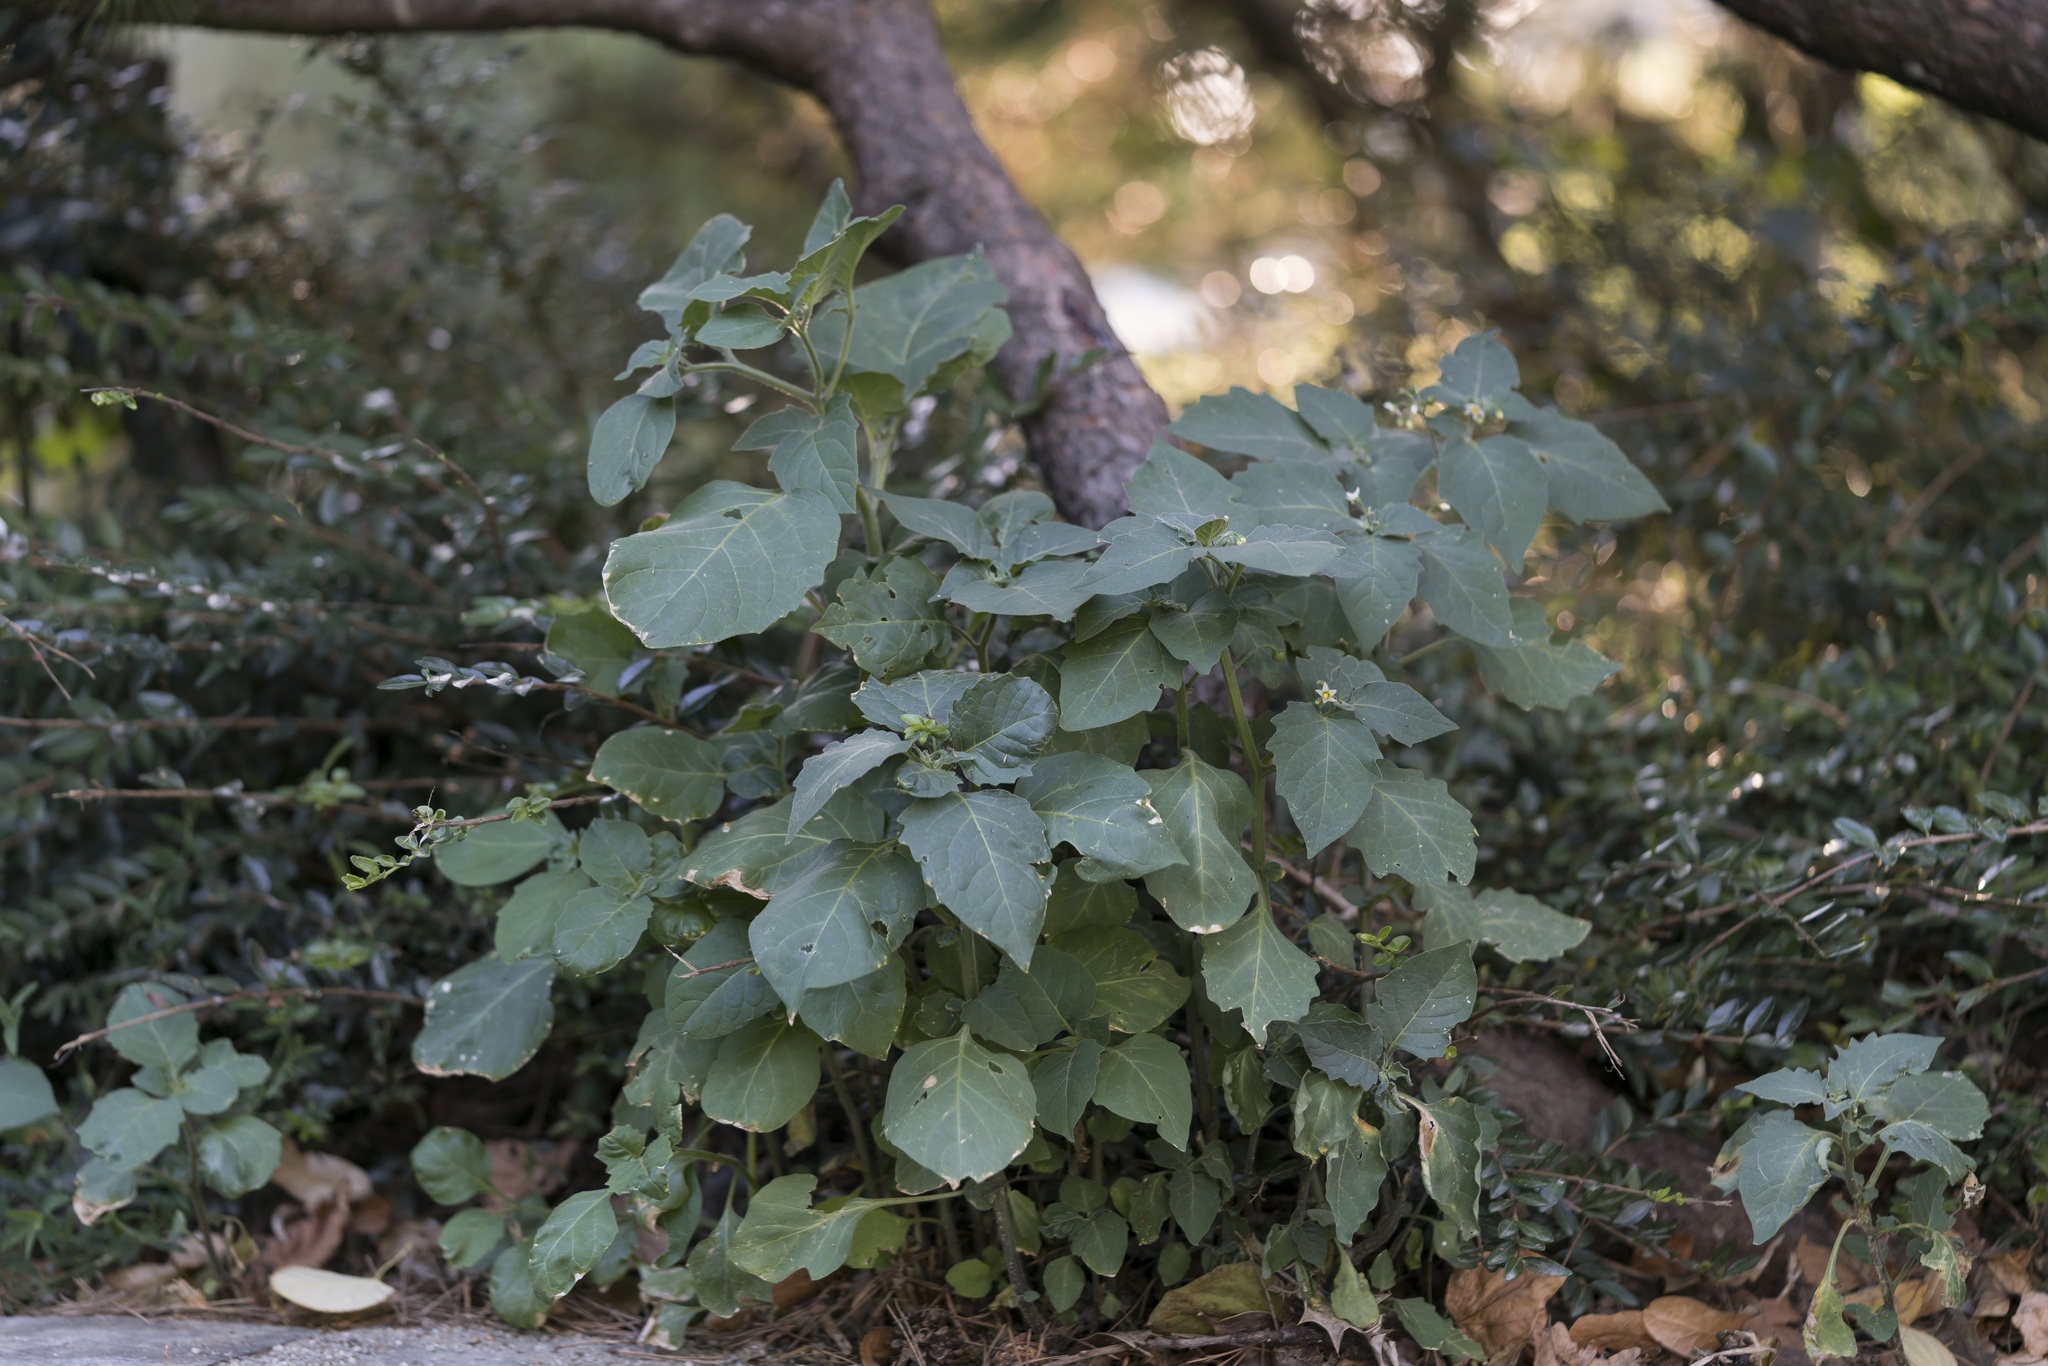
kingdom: Plantae
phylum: Tracheophyta
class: Magnoliopsida
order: Solanales
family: Solanaceae
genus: Solanum
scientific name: Solanum nigrum
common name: Black nightshade
